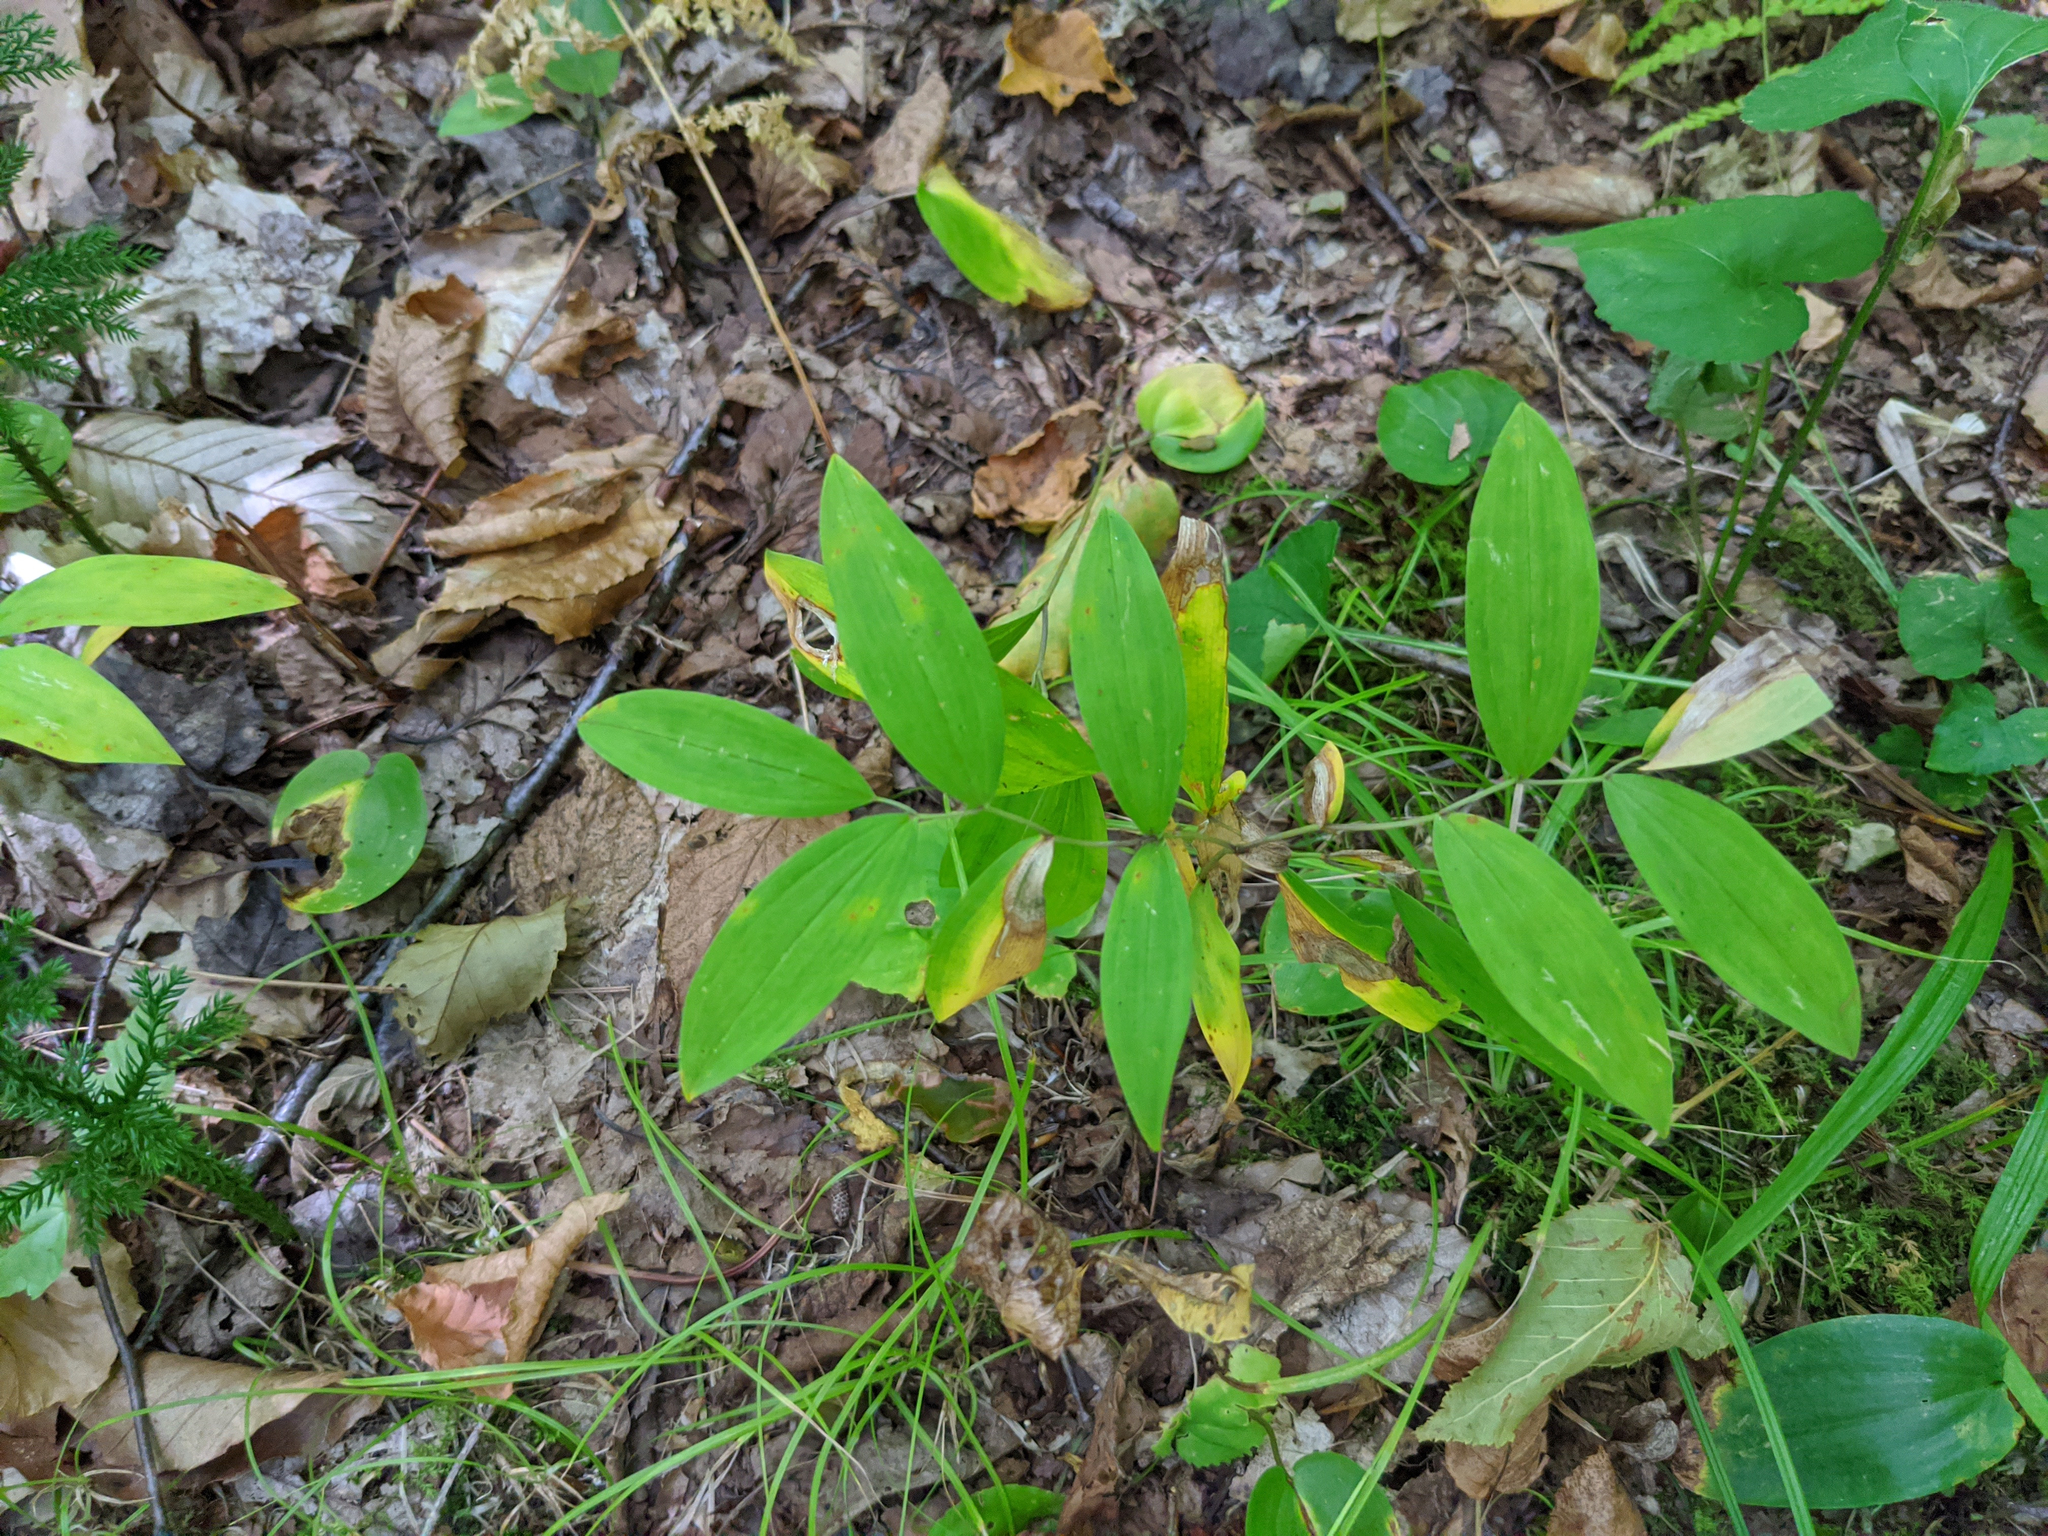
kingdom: Plantae
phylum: Tracheophyta
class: Liliopsida
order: Liliales
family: Colchicaceae
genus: Uvularia
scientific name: Uvularia sessilifolia
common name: Straw-lily
